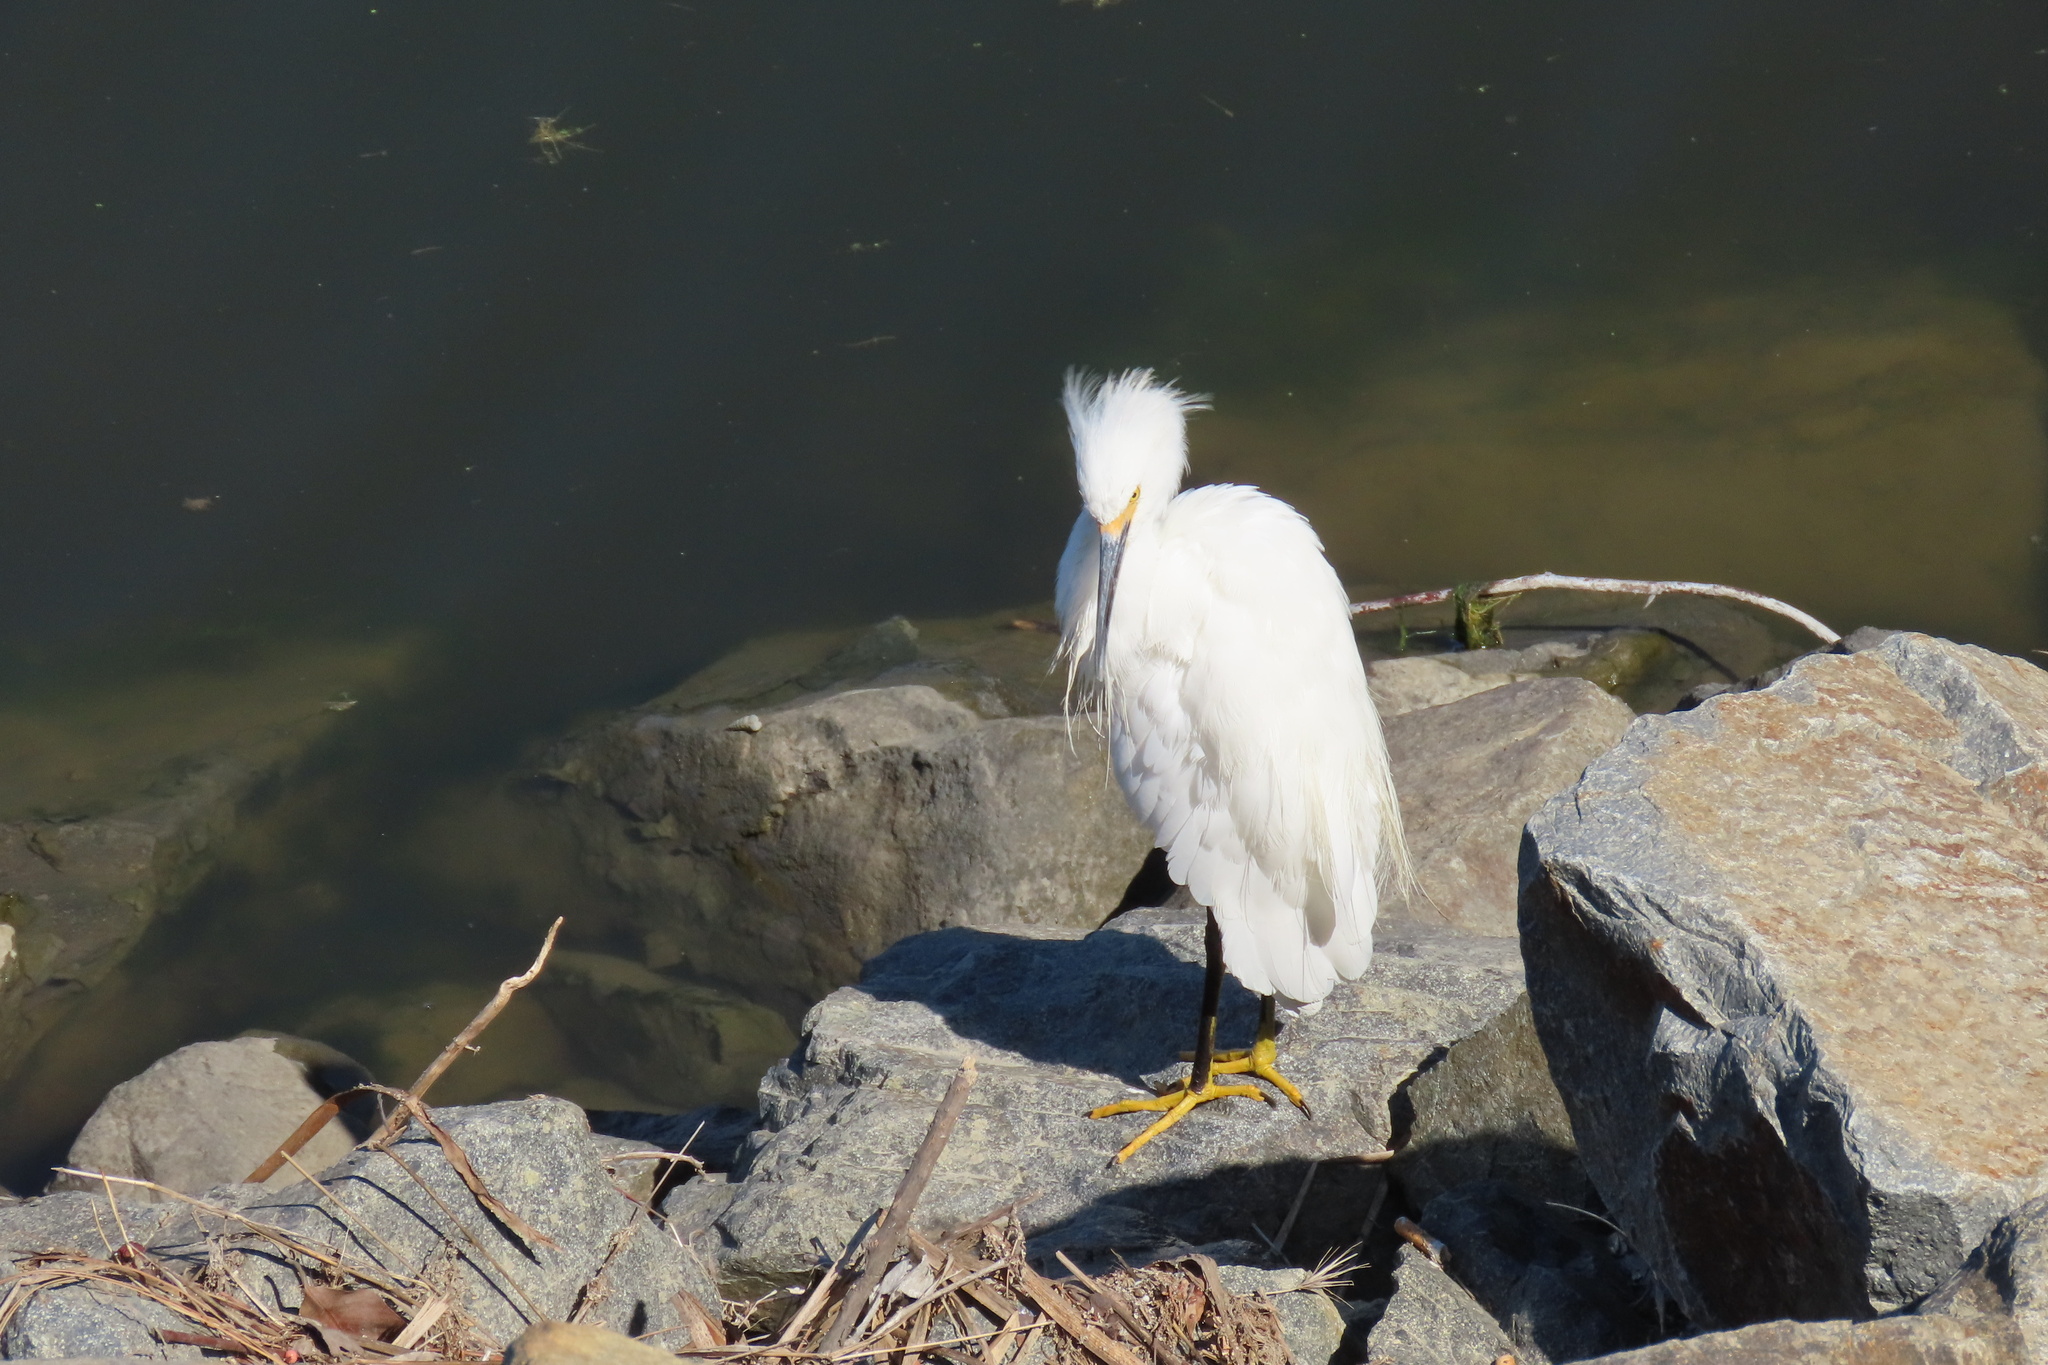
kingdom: Animalia
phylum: Chordata
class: Aves
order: Pelecaniformes
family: Ardeidae
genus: Egretta
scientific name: Egretta thula
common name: Snowy egret
